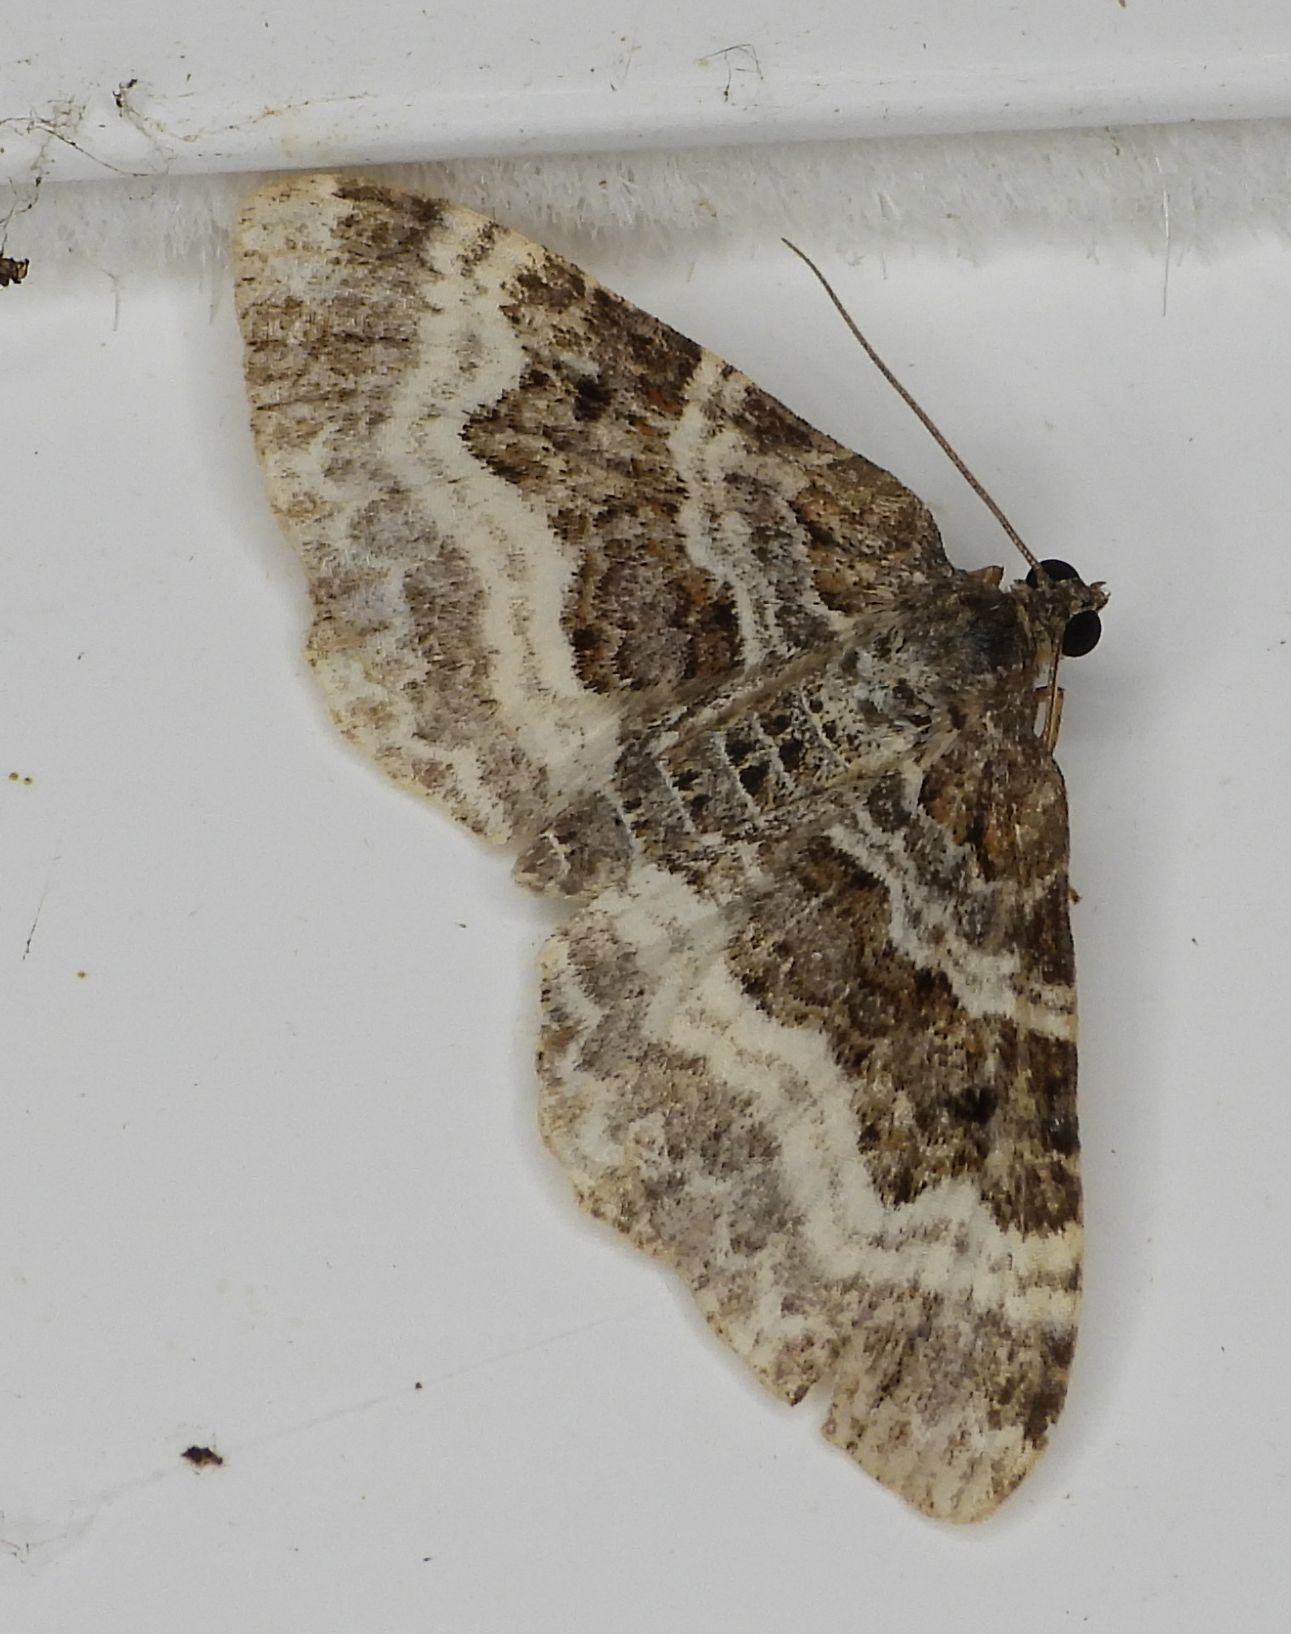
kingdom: Animalia
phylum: Arthropoda
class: Insecta
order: Lepidoptera
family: Geometridae
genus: Epirrhoe
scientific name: Epirrhoe alternata
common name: Common carpet
